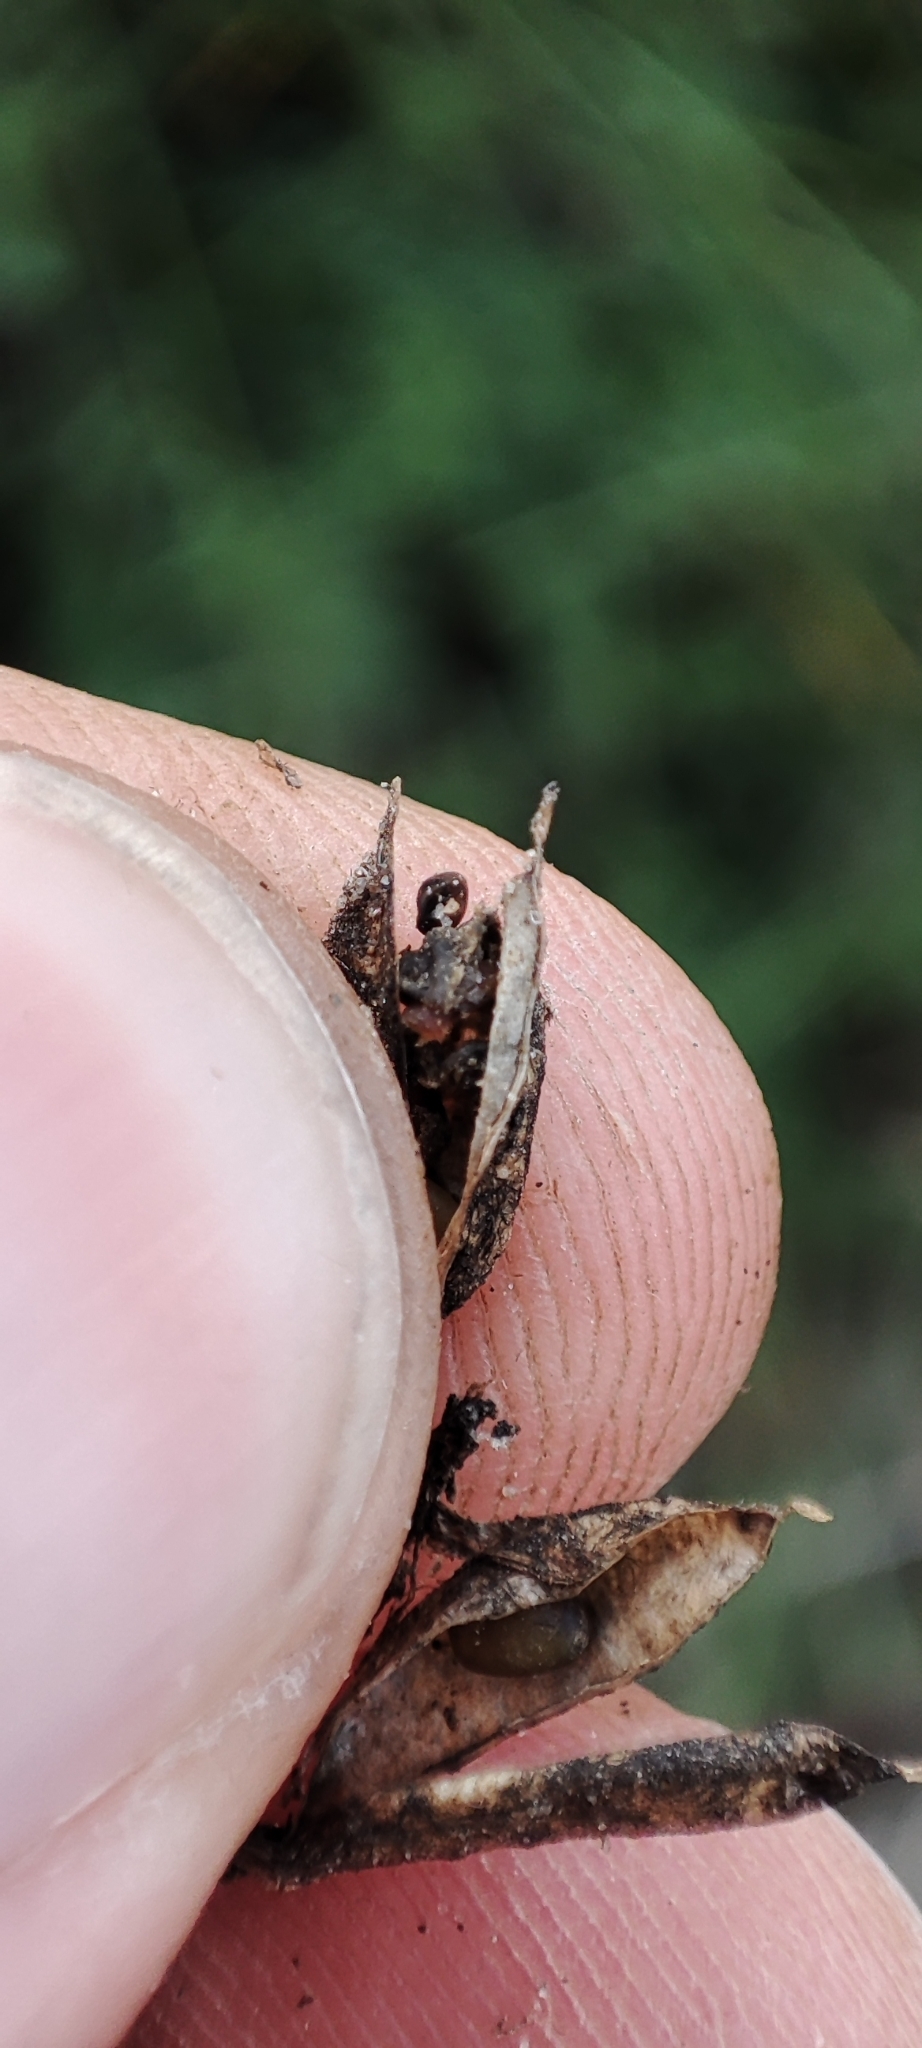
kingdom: Plantae
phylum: Tracheophyta
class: Magnoliopsida
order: Fabales
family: Fabaceae
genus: Astragalus
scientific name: Astragalus alpinus
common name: Alpine milk-vetch
